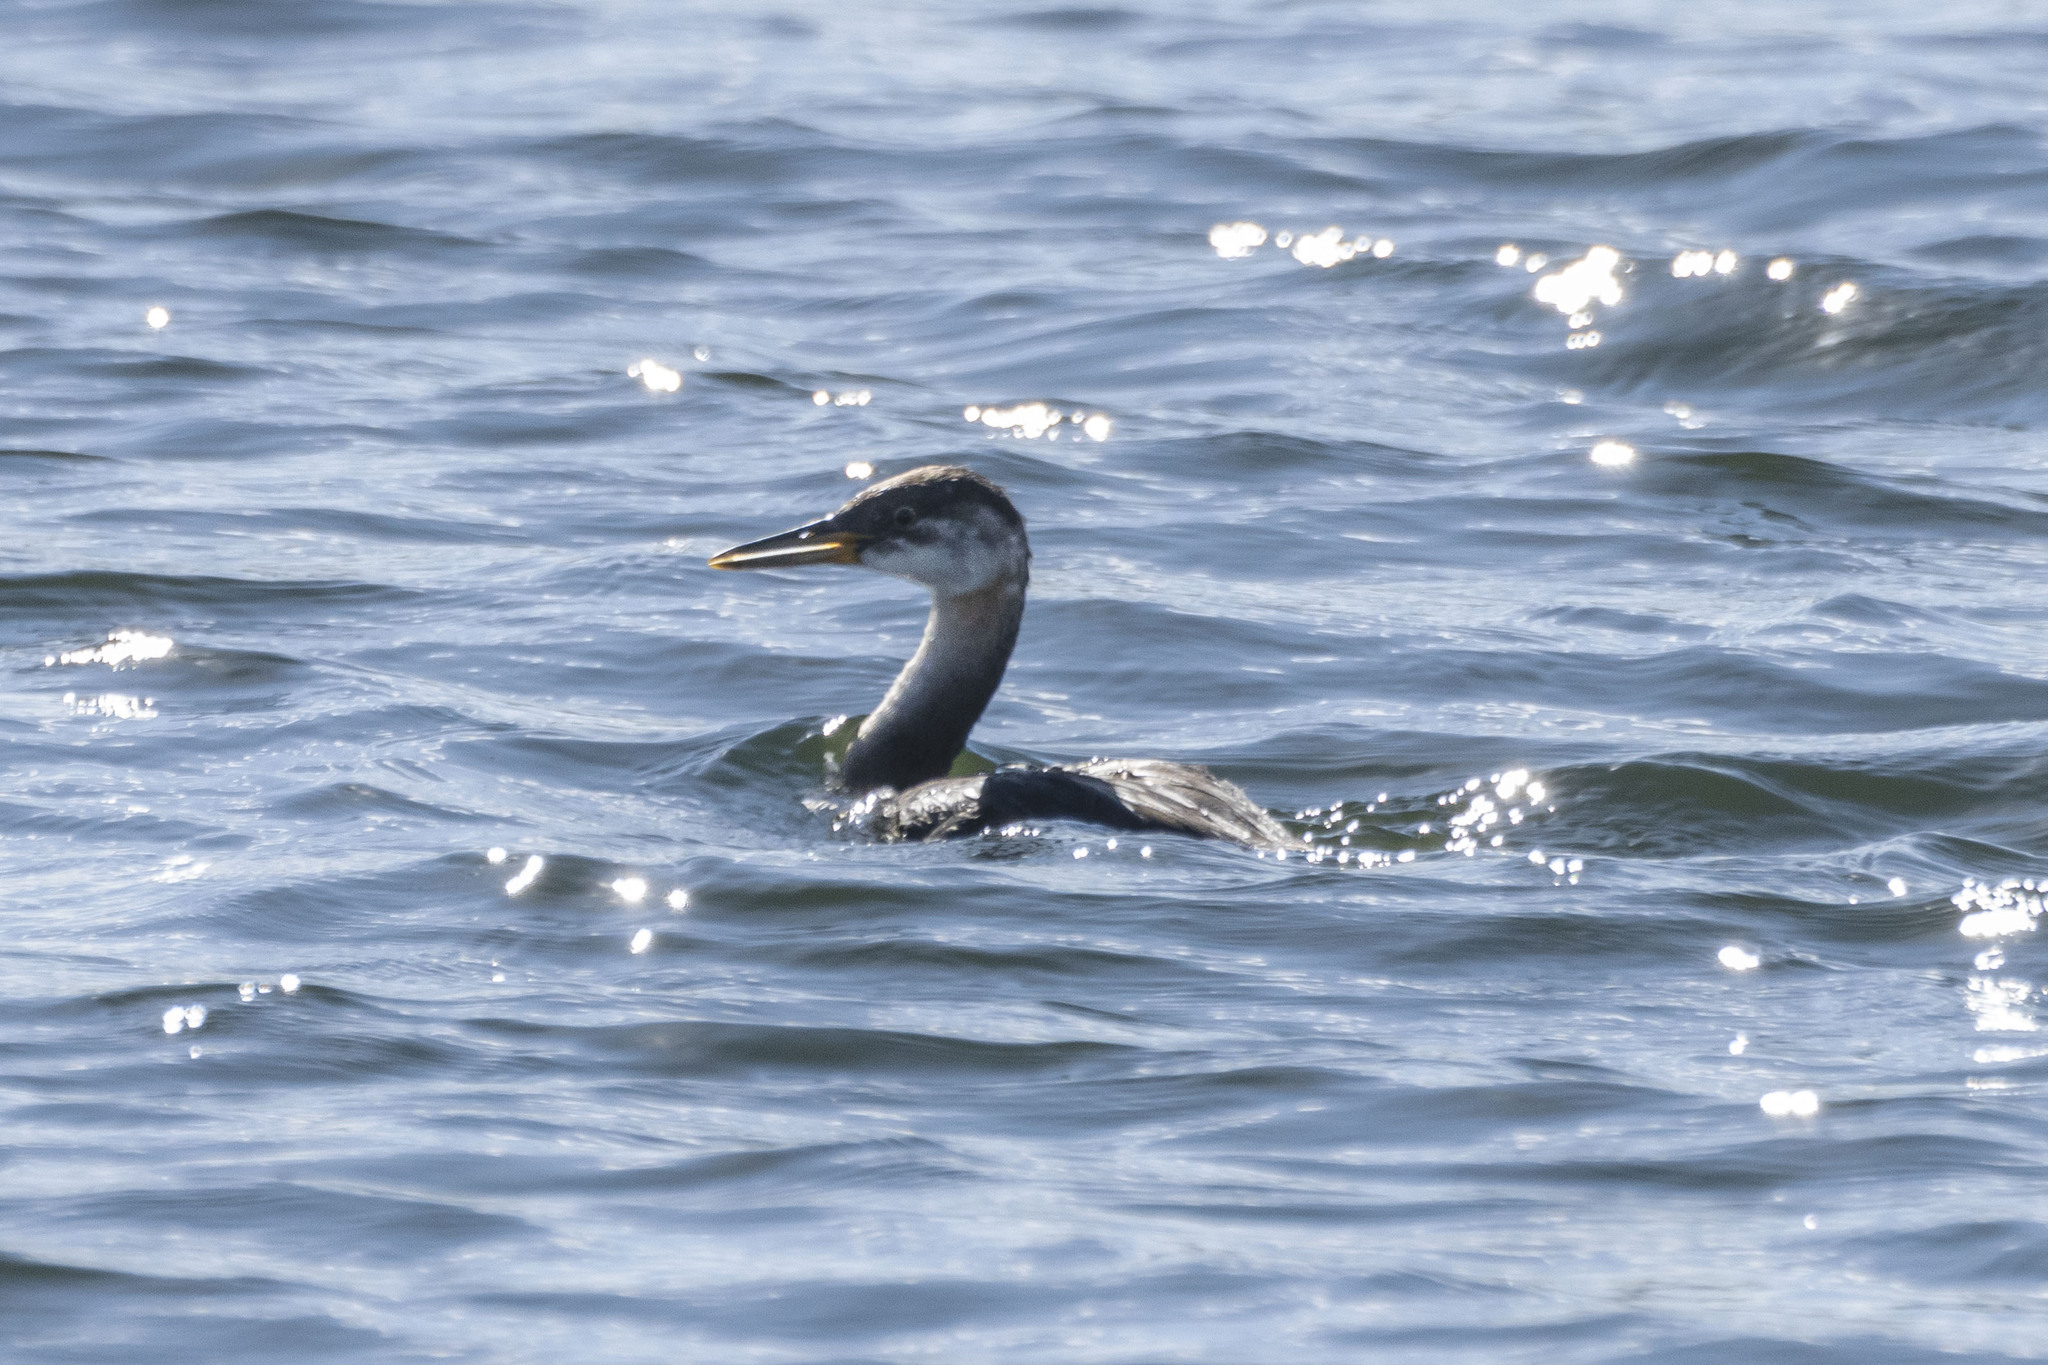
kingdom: Animalia
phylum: Chordata
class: Aves
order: Podicipediformes
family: Podicipedidae
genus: Podiceps
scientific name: Podiceps grisegena
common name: Red-necked grebe
